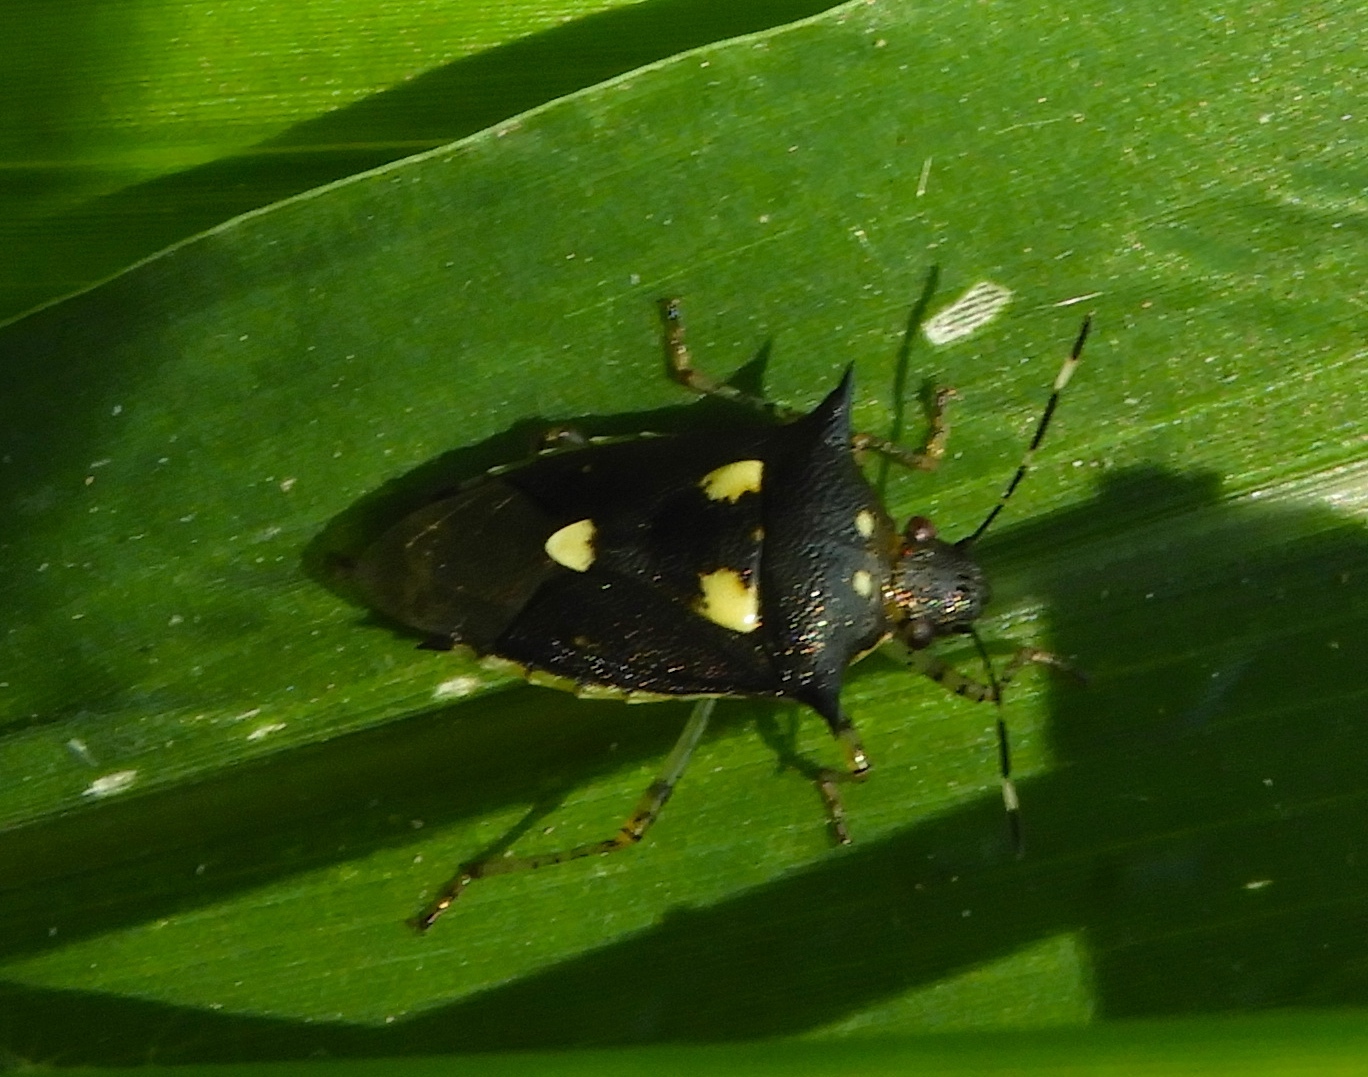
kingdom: Animalia
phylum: Arthropoda
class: Insecta
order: Hemiptera
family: Pentatomidae
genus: Mormidea
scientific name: Mormidea lunara
